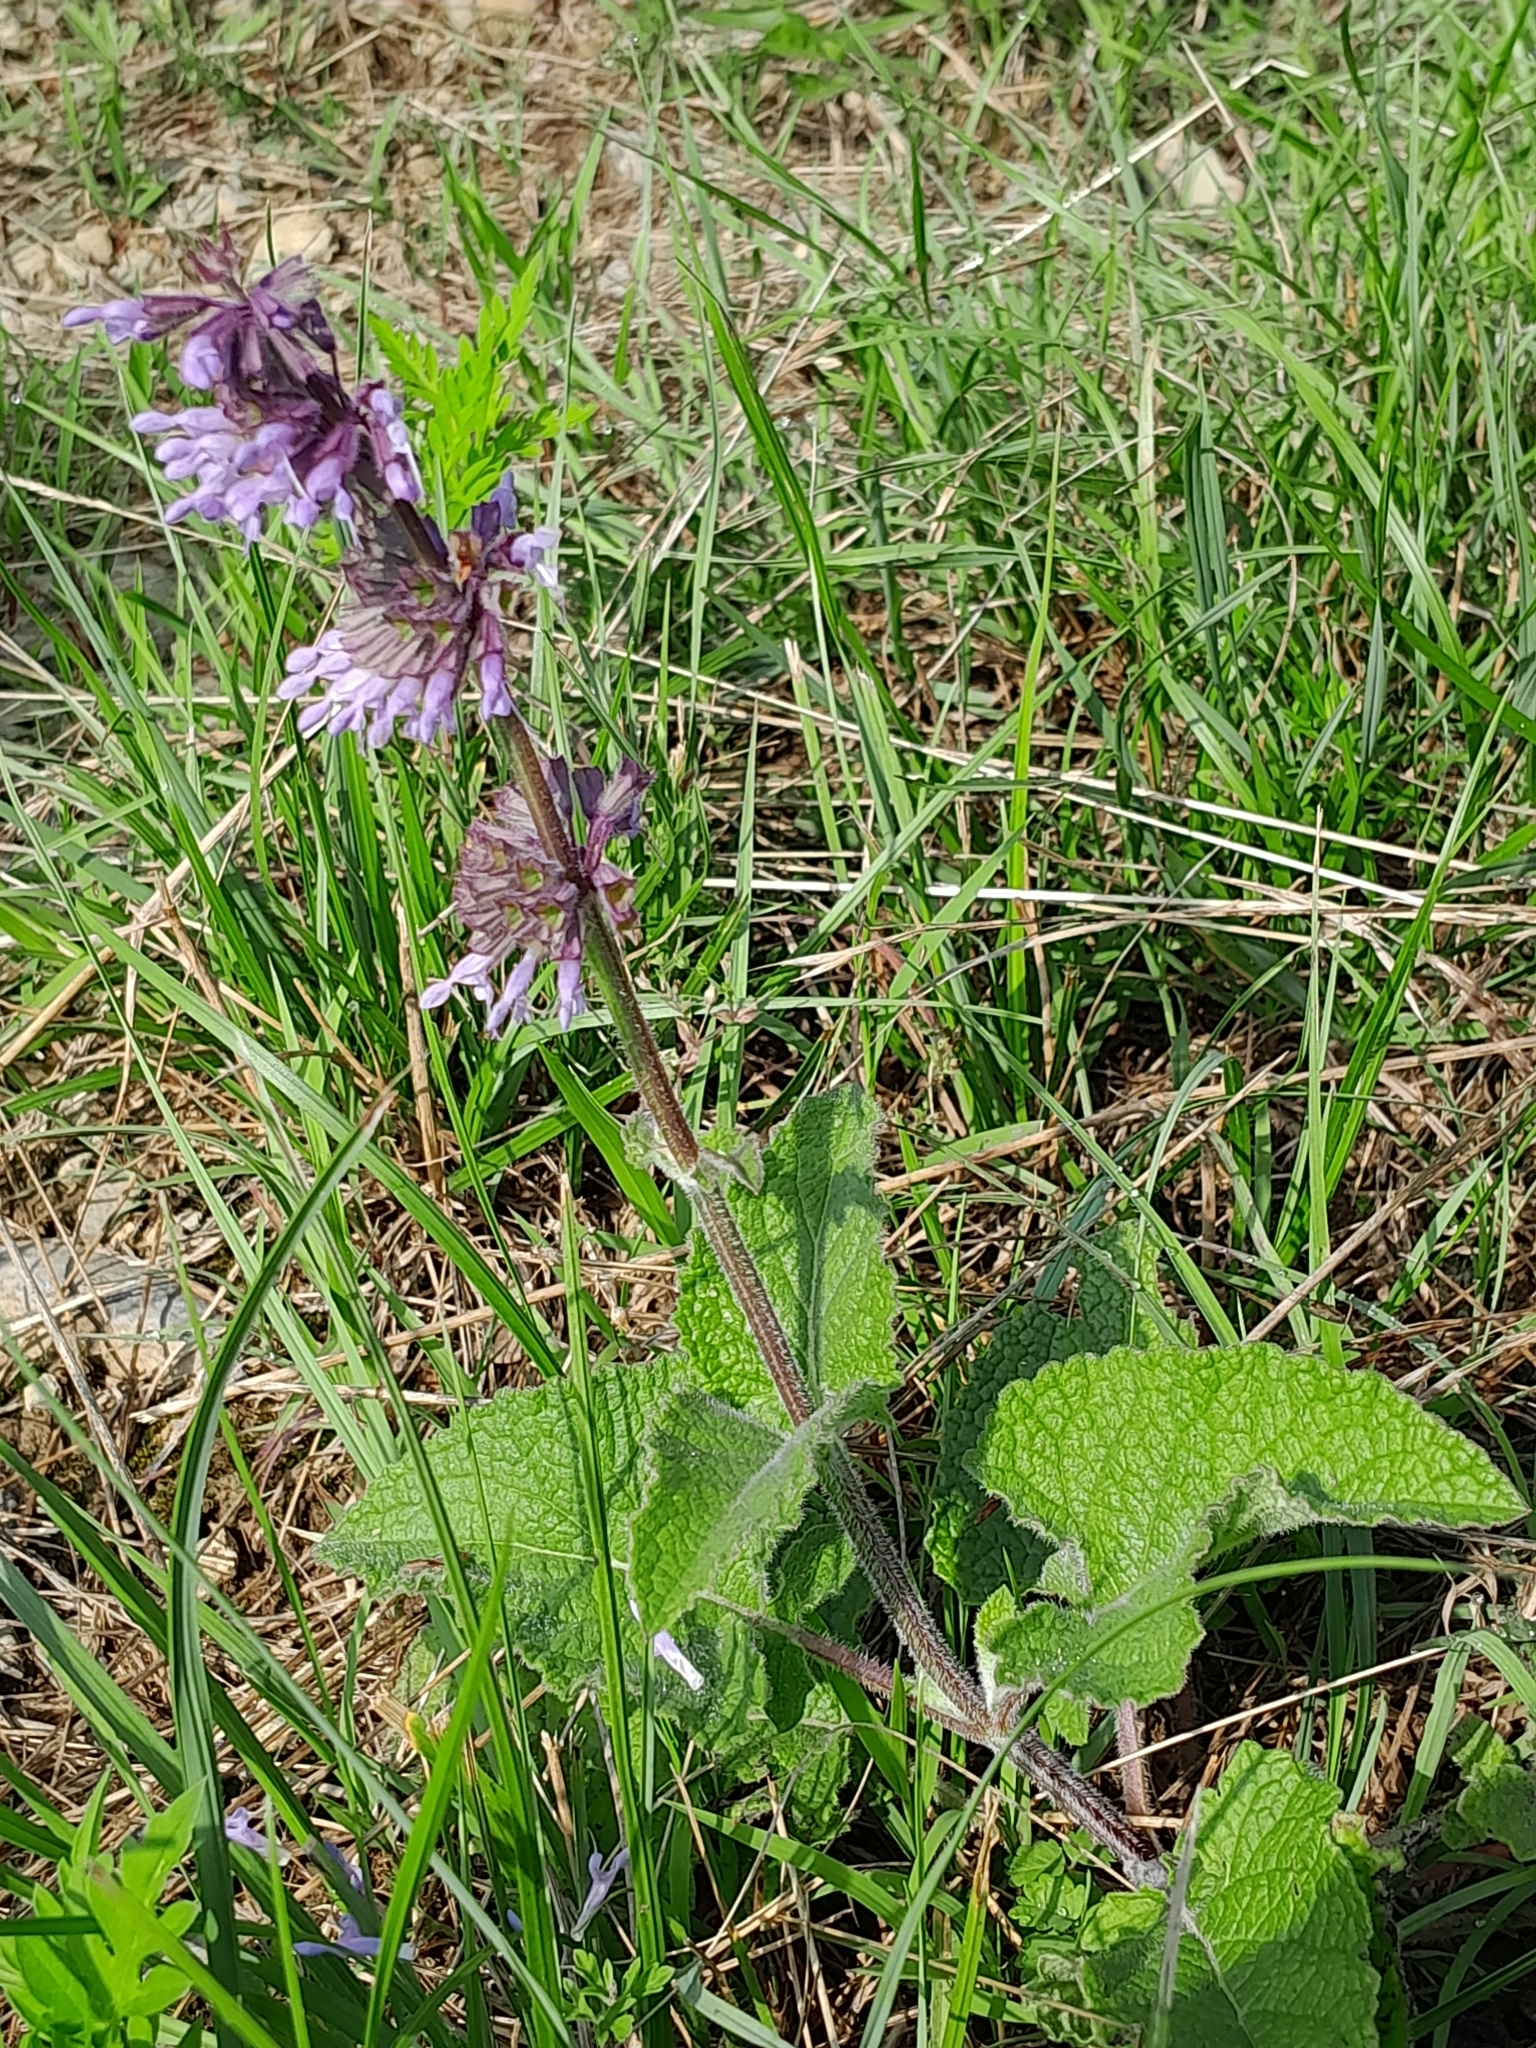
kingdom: Plantae
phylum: Tracheophyta
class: Magnoliopsida
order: Lamiales
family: Lamiaceae
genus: Salvia
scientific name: Salvia verticillata
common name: Whorled clary
